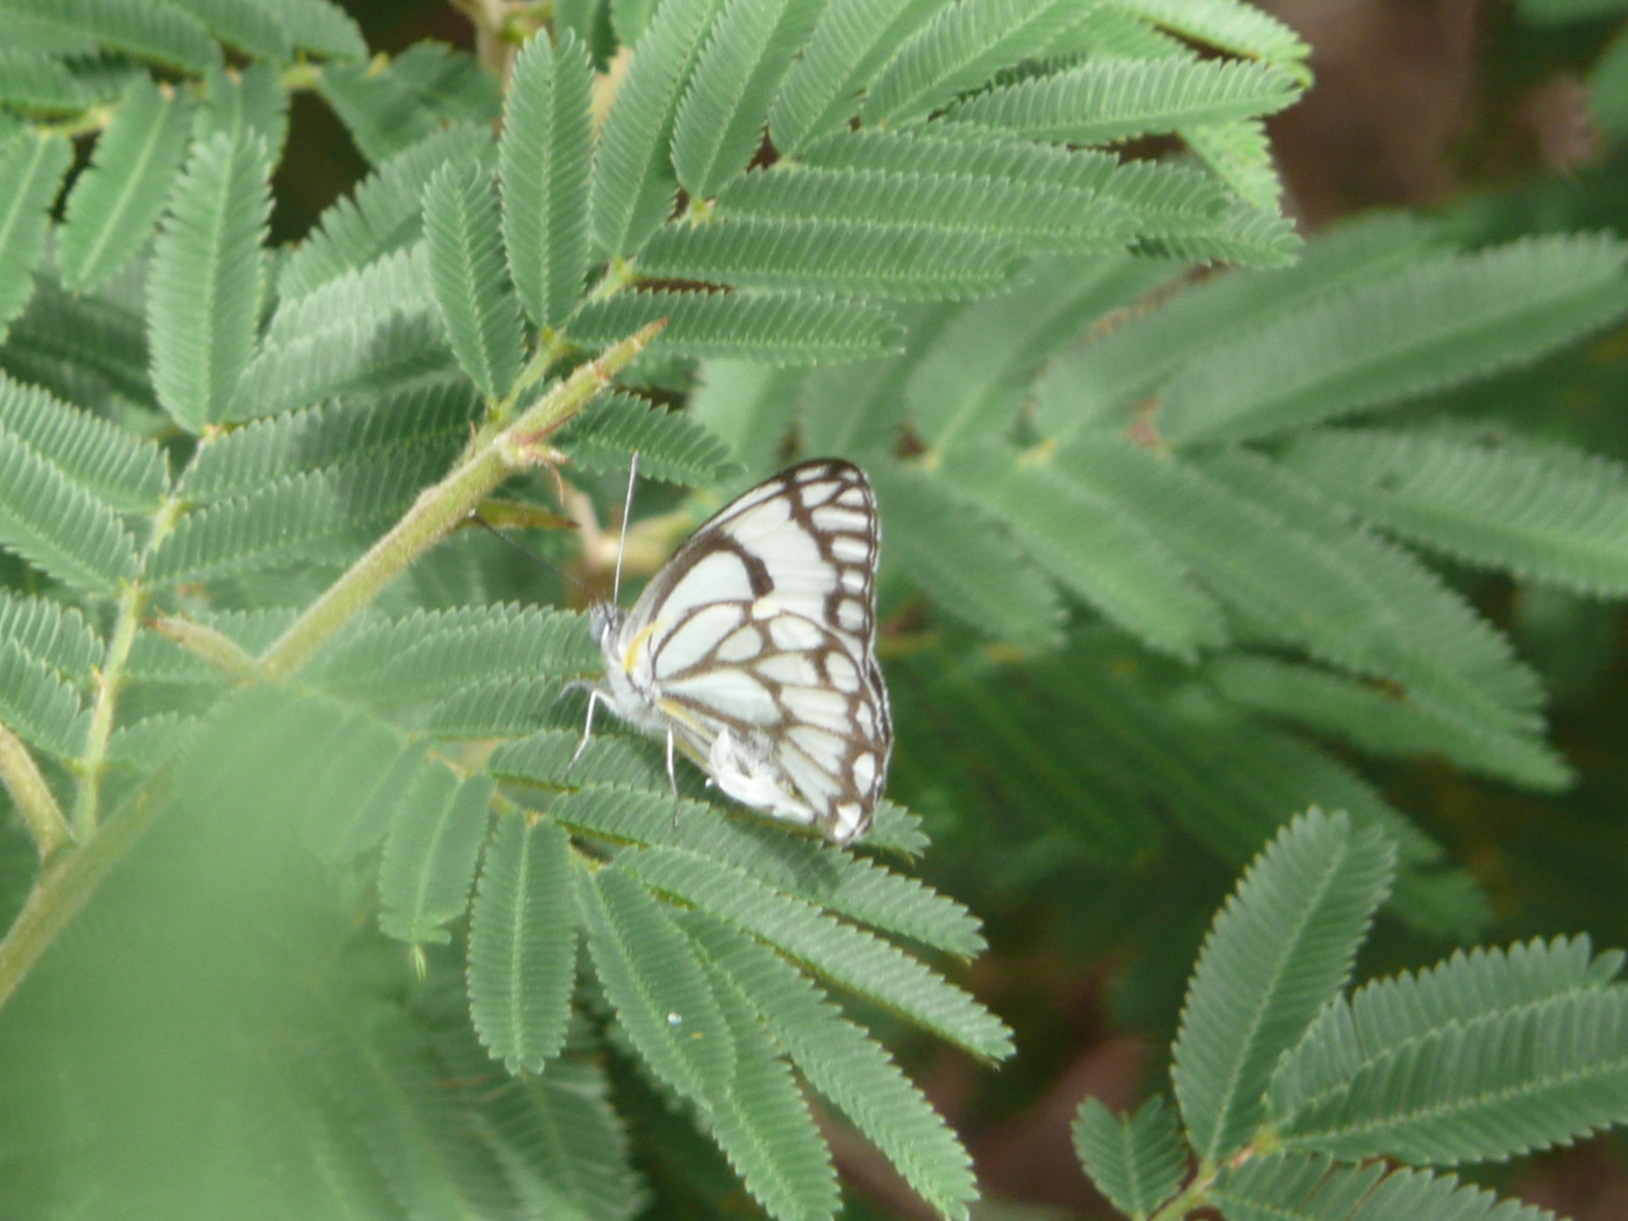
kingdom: Animalia
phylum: Arthropoda
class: Insecta
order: Lepidoptera
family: Pieridae
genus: Belenois
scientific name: Belenois aurota
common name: Brown-veined white
